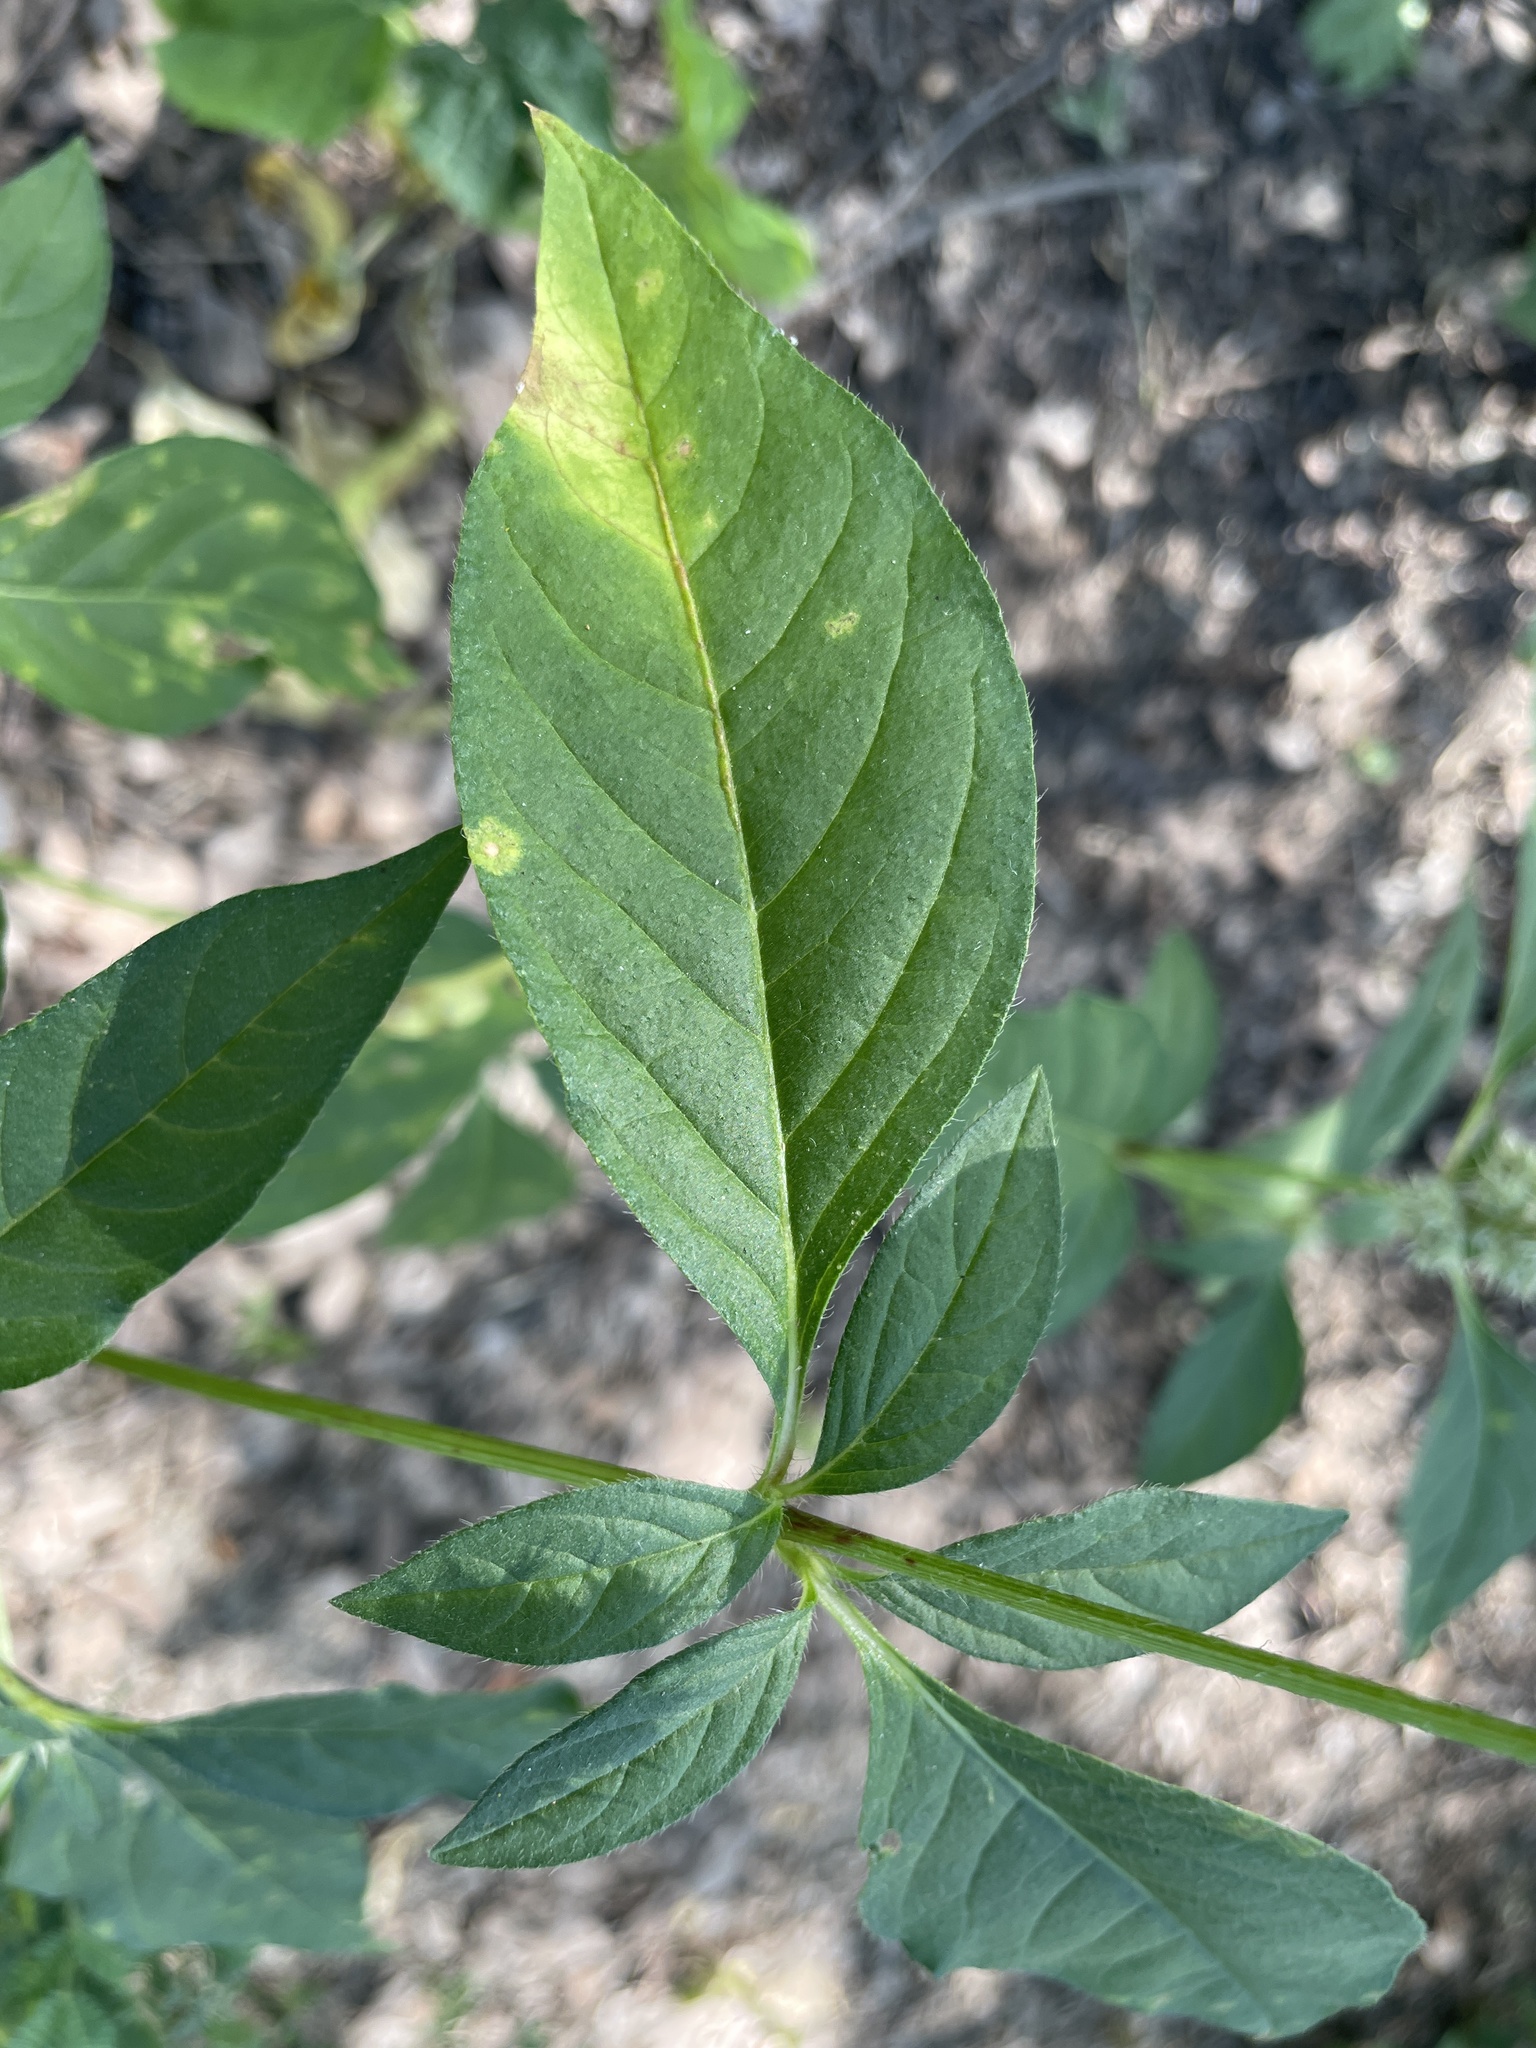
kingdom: Plantae
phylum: Tracheophyta
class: Magnoliopsida
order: Caryophyllales
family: Amaranthaceae
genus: Cyathula
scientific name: Cyathula orthacantha
